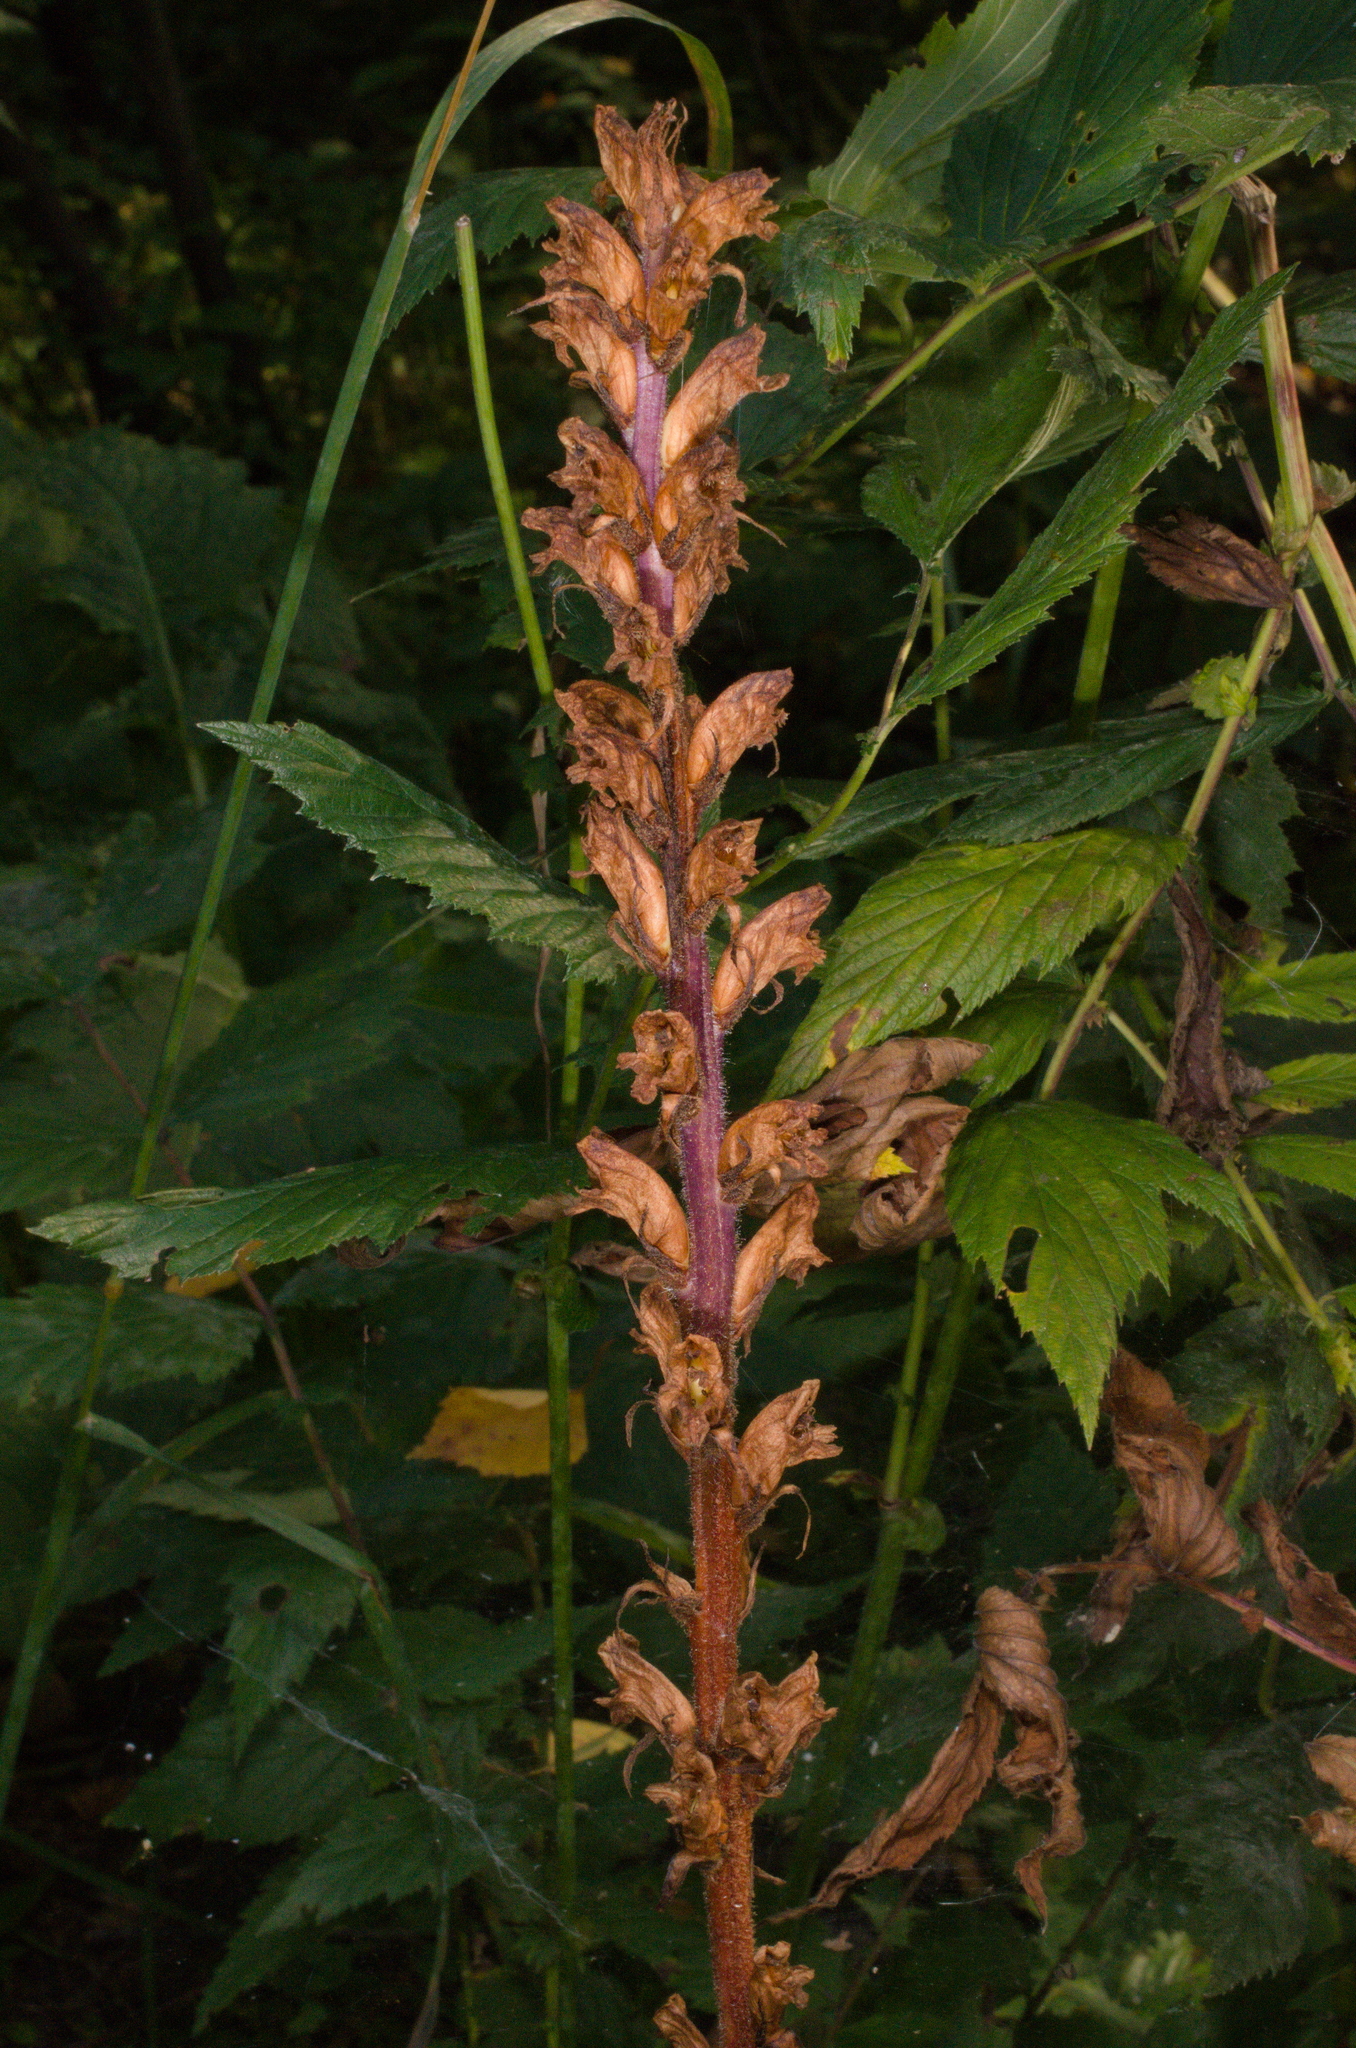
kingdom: Plantae
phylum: Tracheophyta
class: Magnoliopsida
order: Lamiales
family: Orobanchaceae
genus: Orobanche
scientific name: Orobanche reticulata
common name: Thistle broomrape
